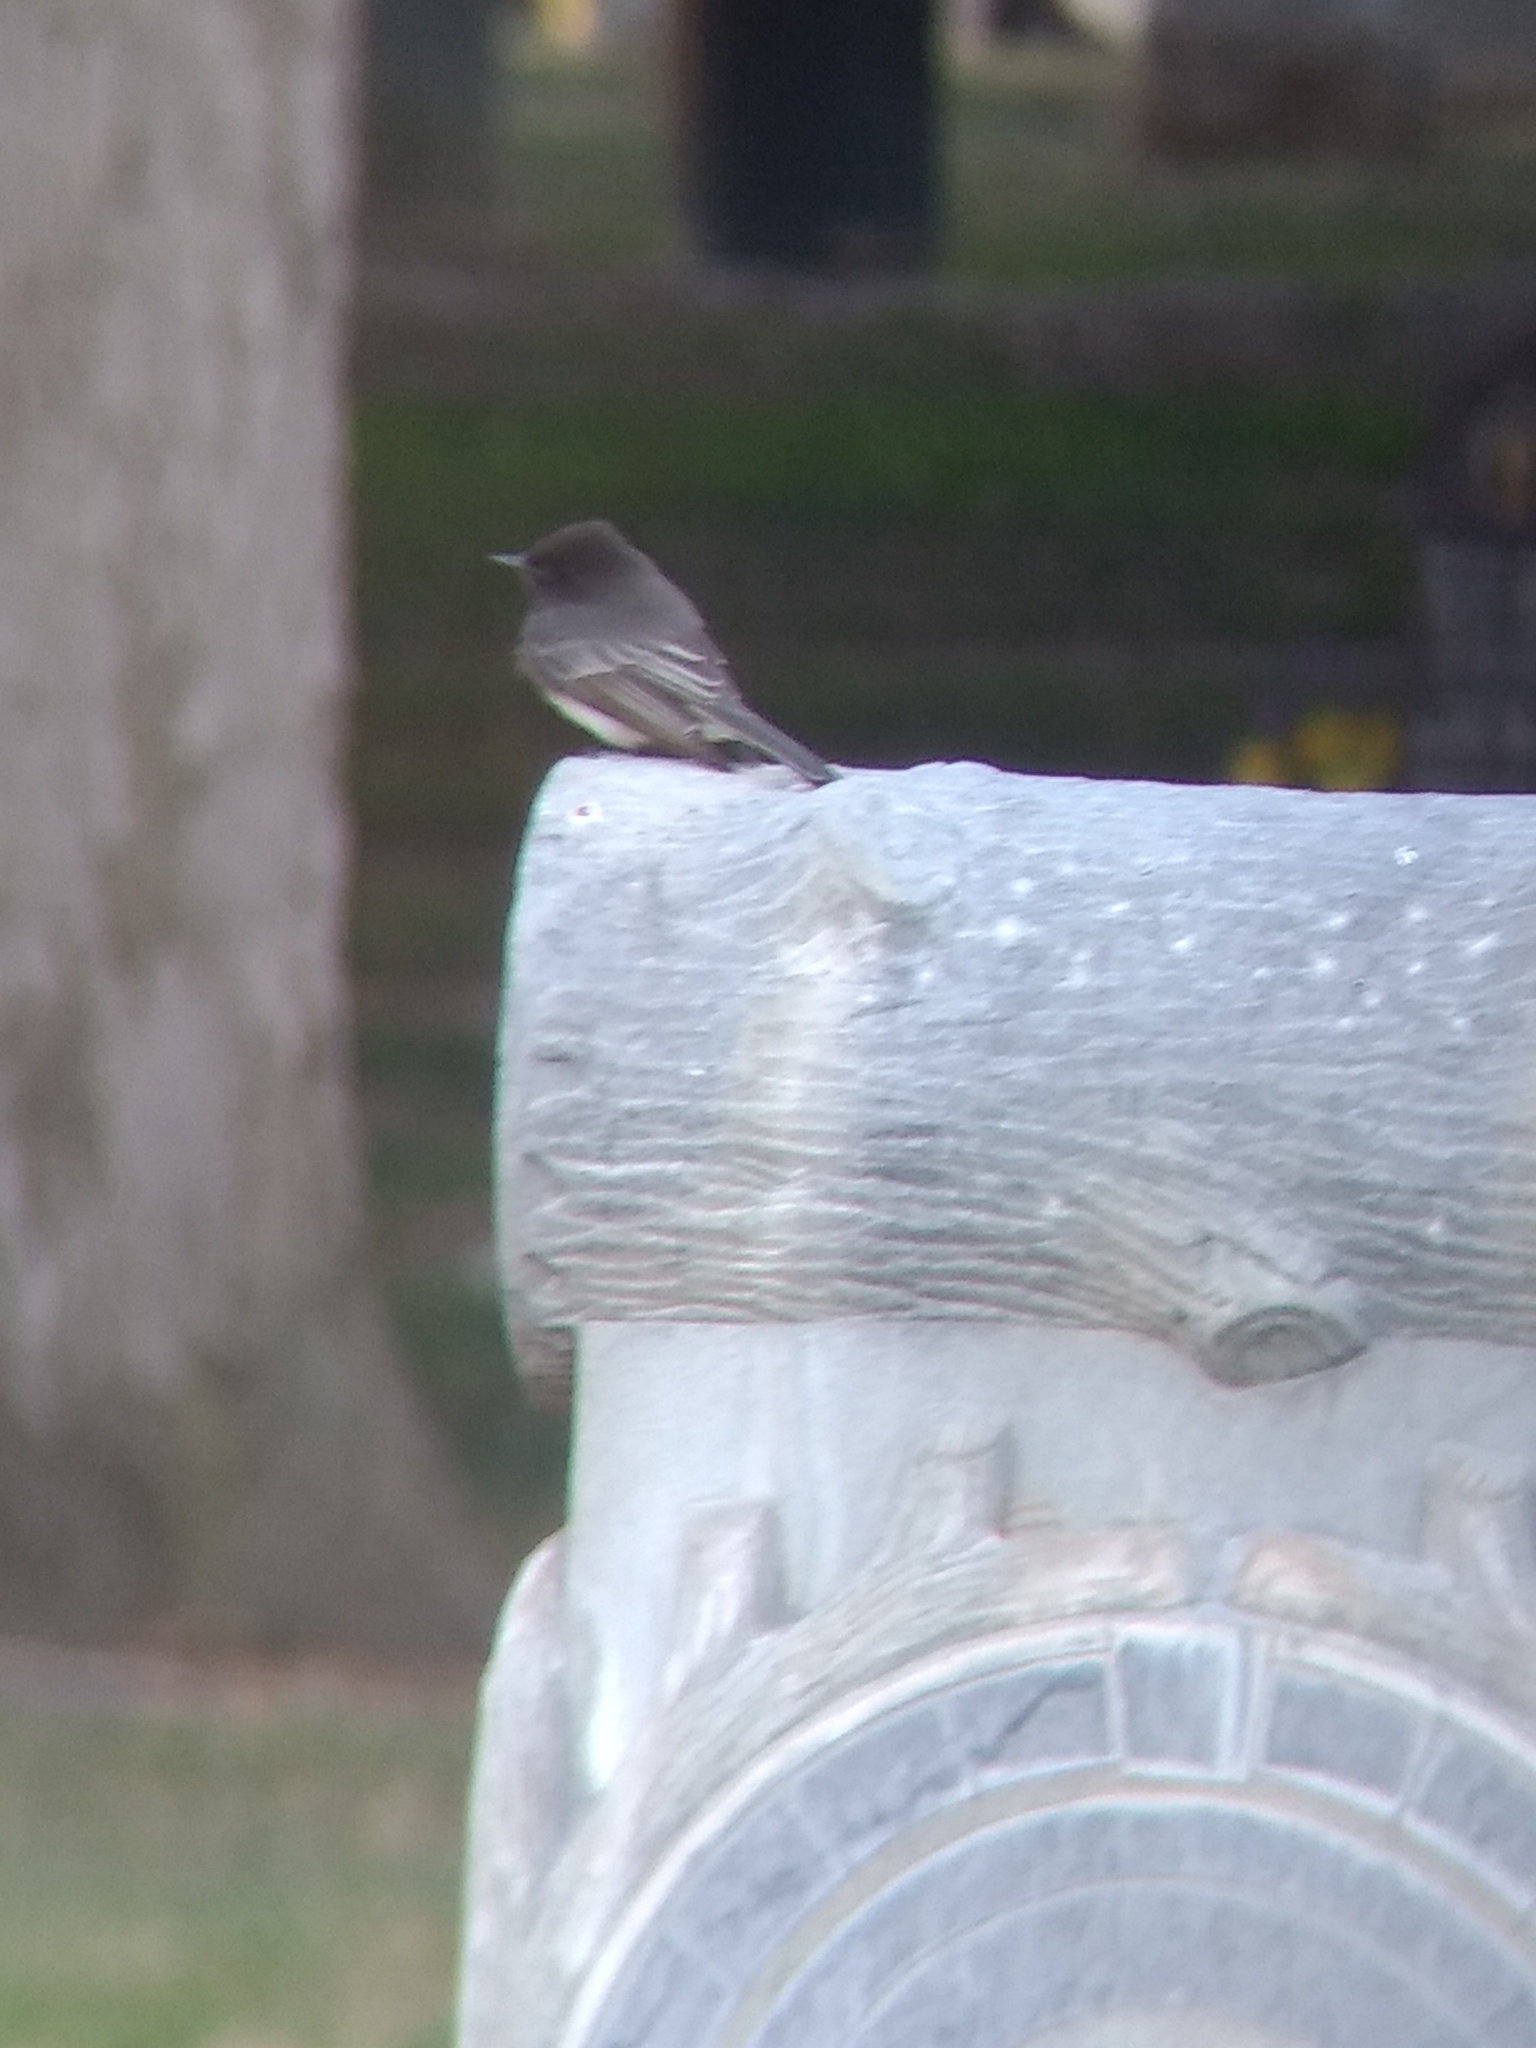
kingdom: Animalia
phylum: Chordata
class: Aves
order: Passeriformes
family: Tyrannidae
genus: Sayornis
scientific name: Sayornis nigricans
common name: Black phoebe
